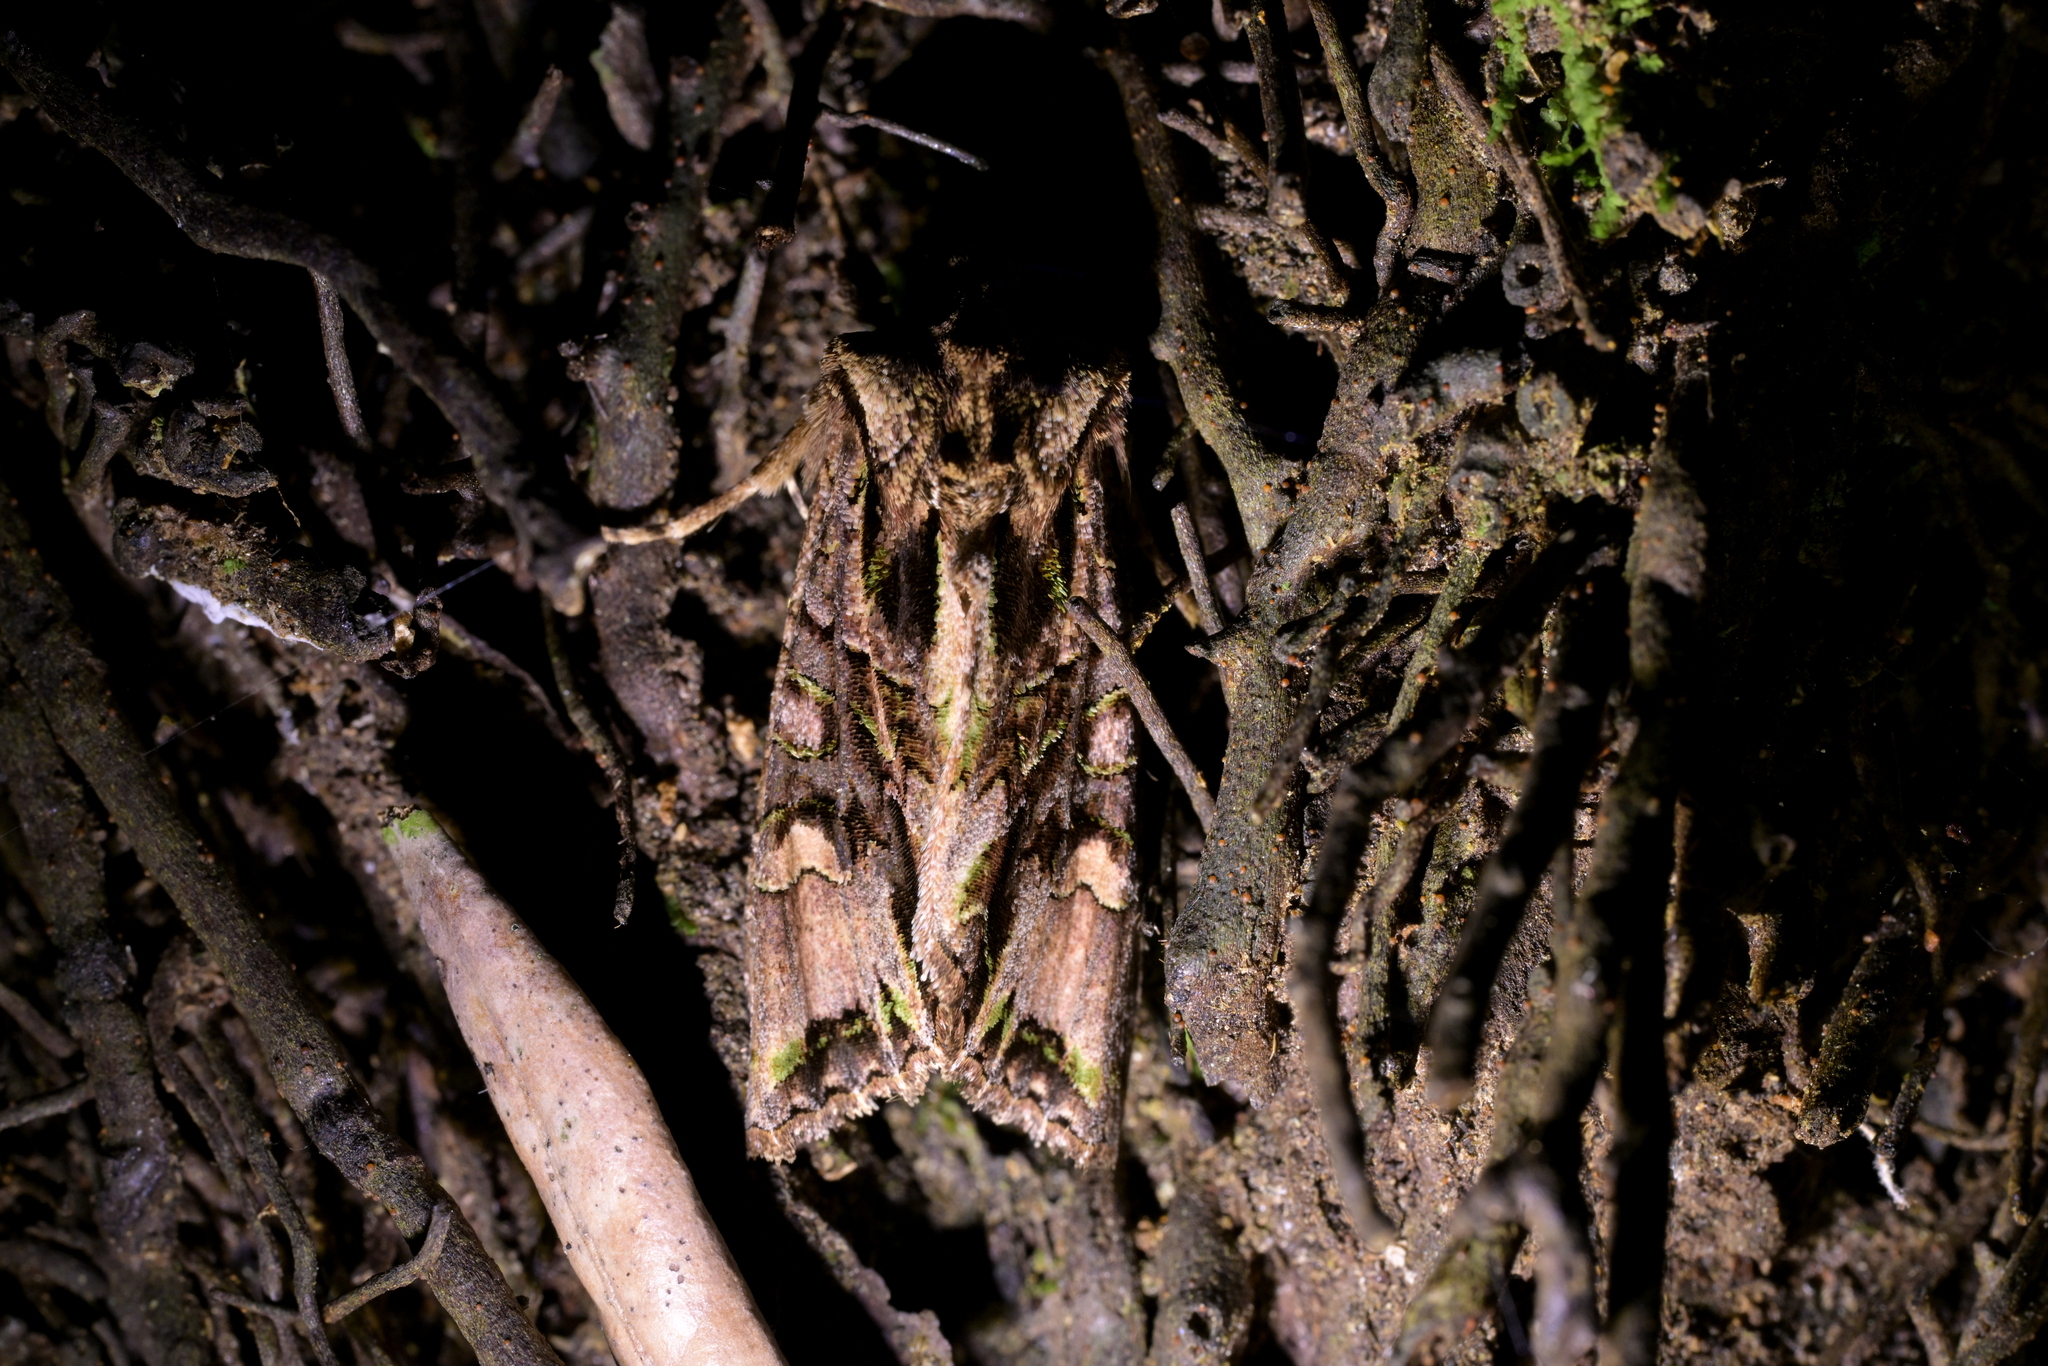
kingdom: Animalia
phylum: Arthropoda
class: Insecta
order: Lepidoptera
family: Noctuidae
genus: Ichneutica
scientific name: Ichneutica insignis
